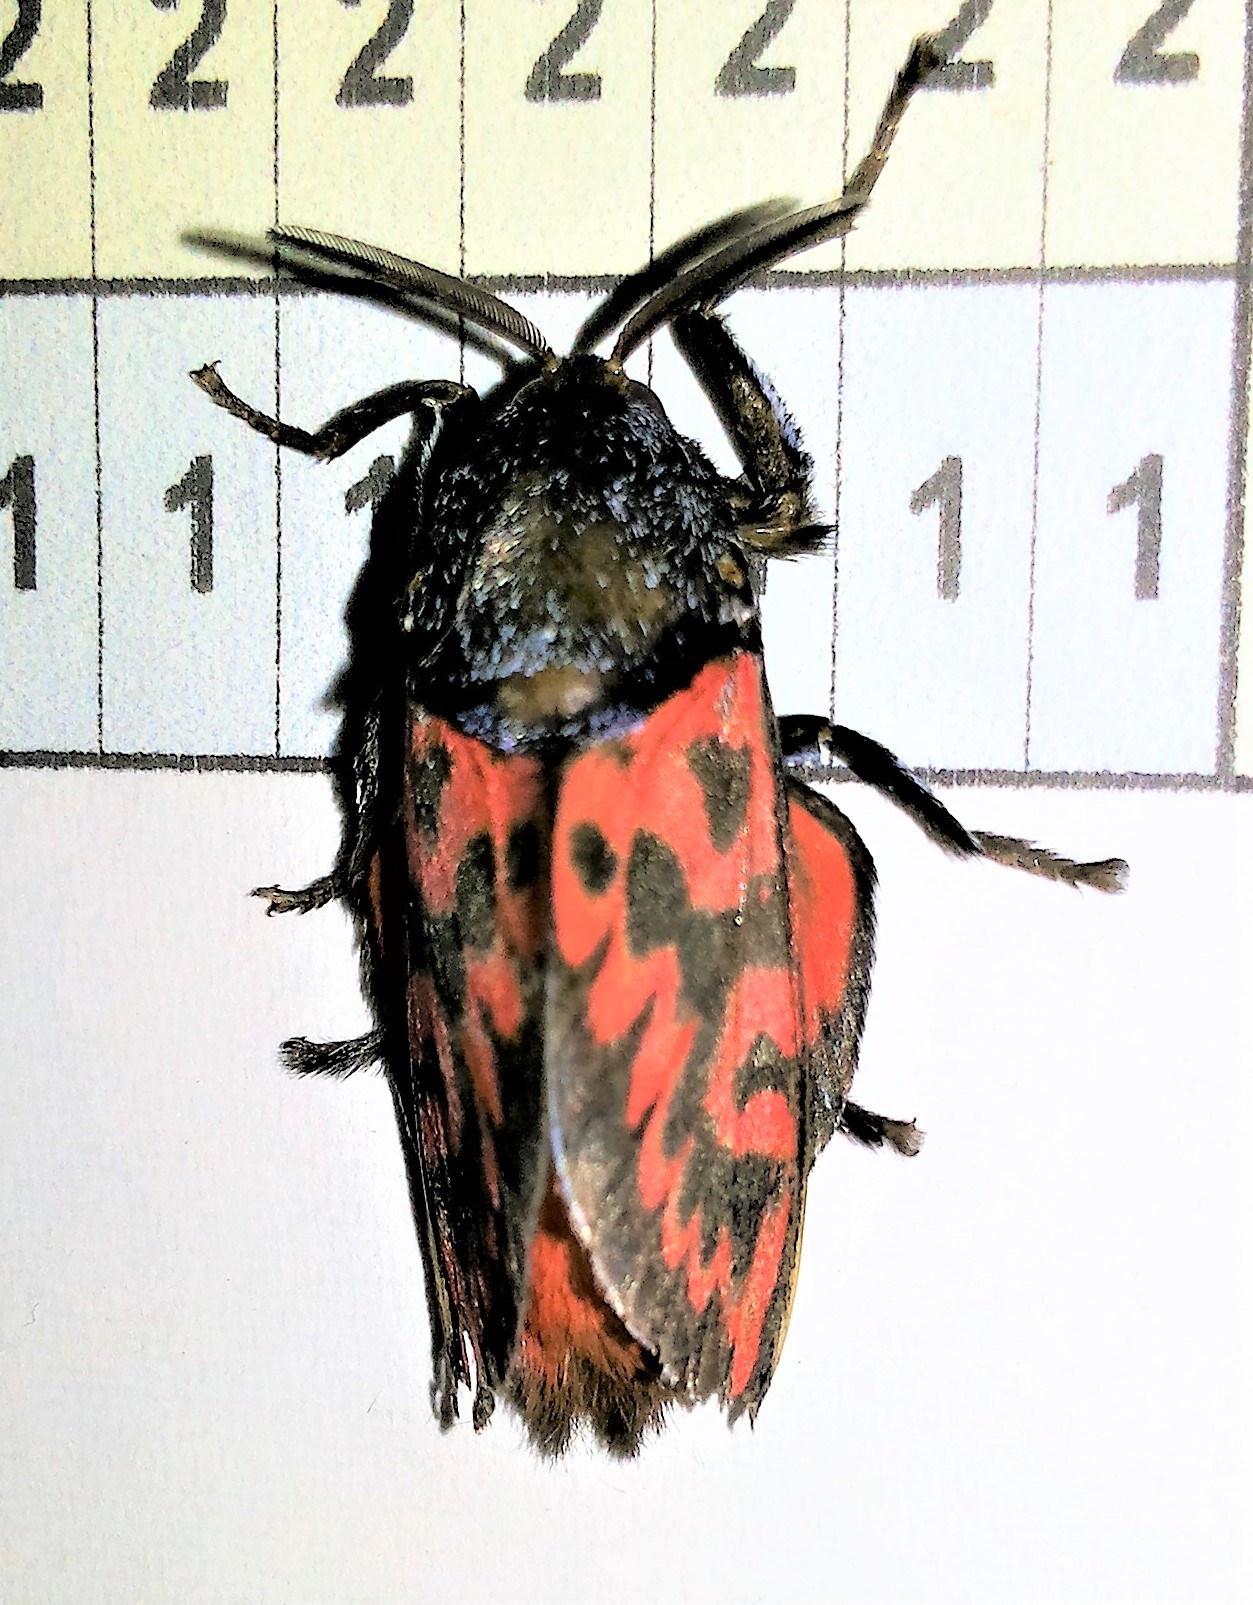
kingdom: Animalia
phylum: Arthropoda
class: Insecta
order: Lepidoptera
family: Megalopygidae
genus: Langucys
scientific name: Langucys bicolor
